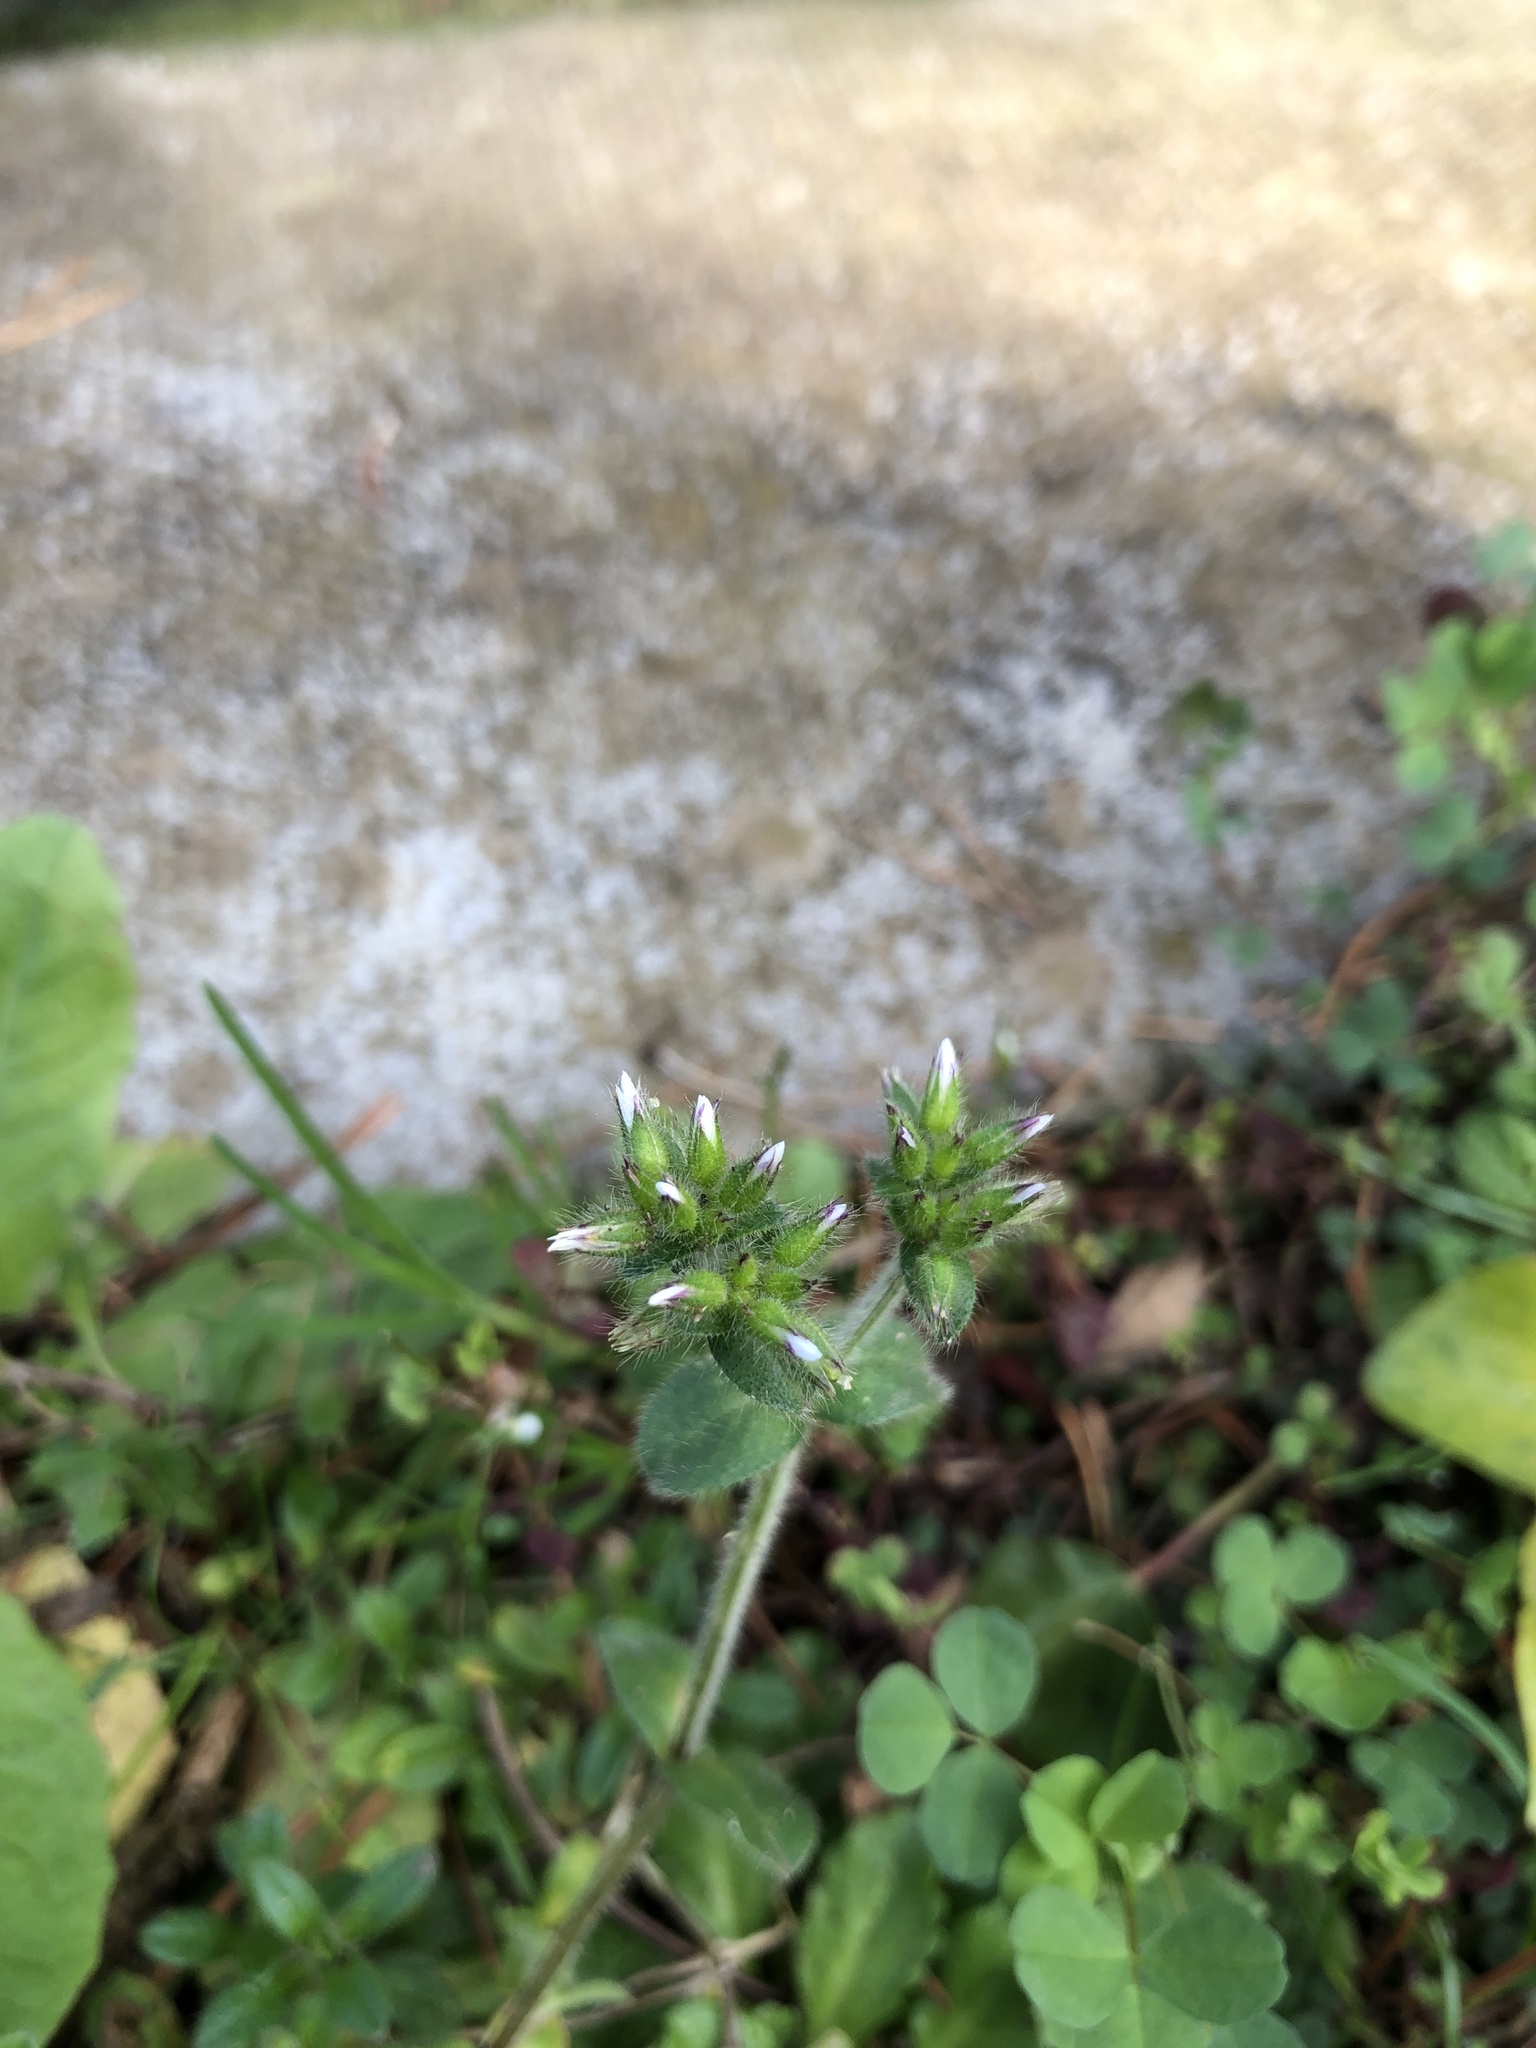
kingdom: Plantae
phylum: Tracheophyta
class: Magnoliopsida
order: Caryophyllales
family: Caryophyllaceae
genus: Cerastium
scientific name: Cerastium glomeratum
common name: Sticky chickweed
